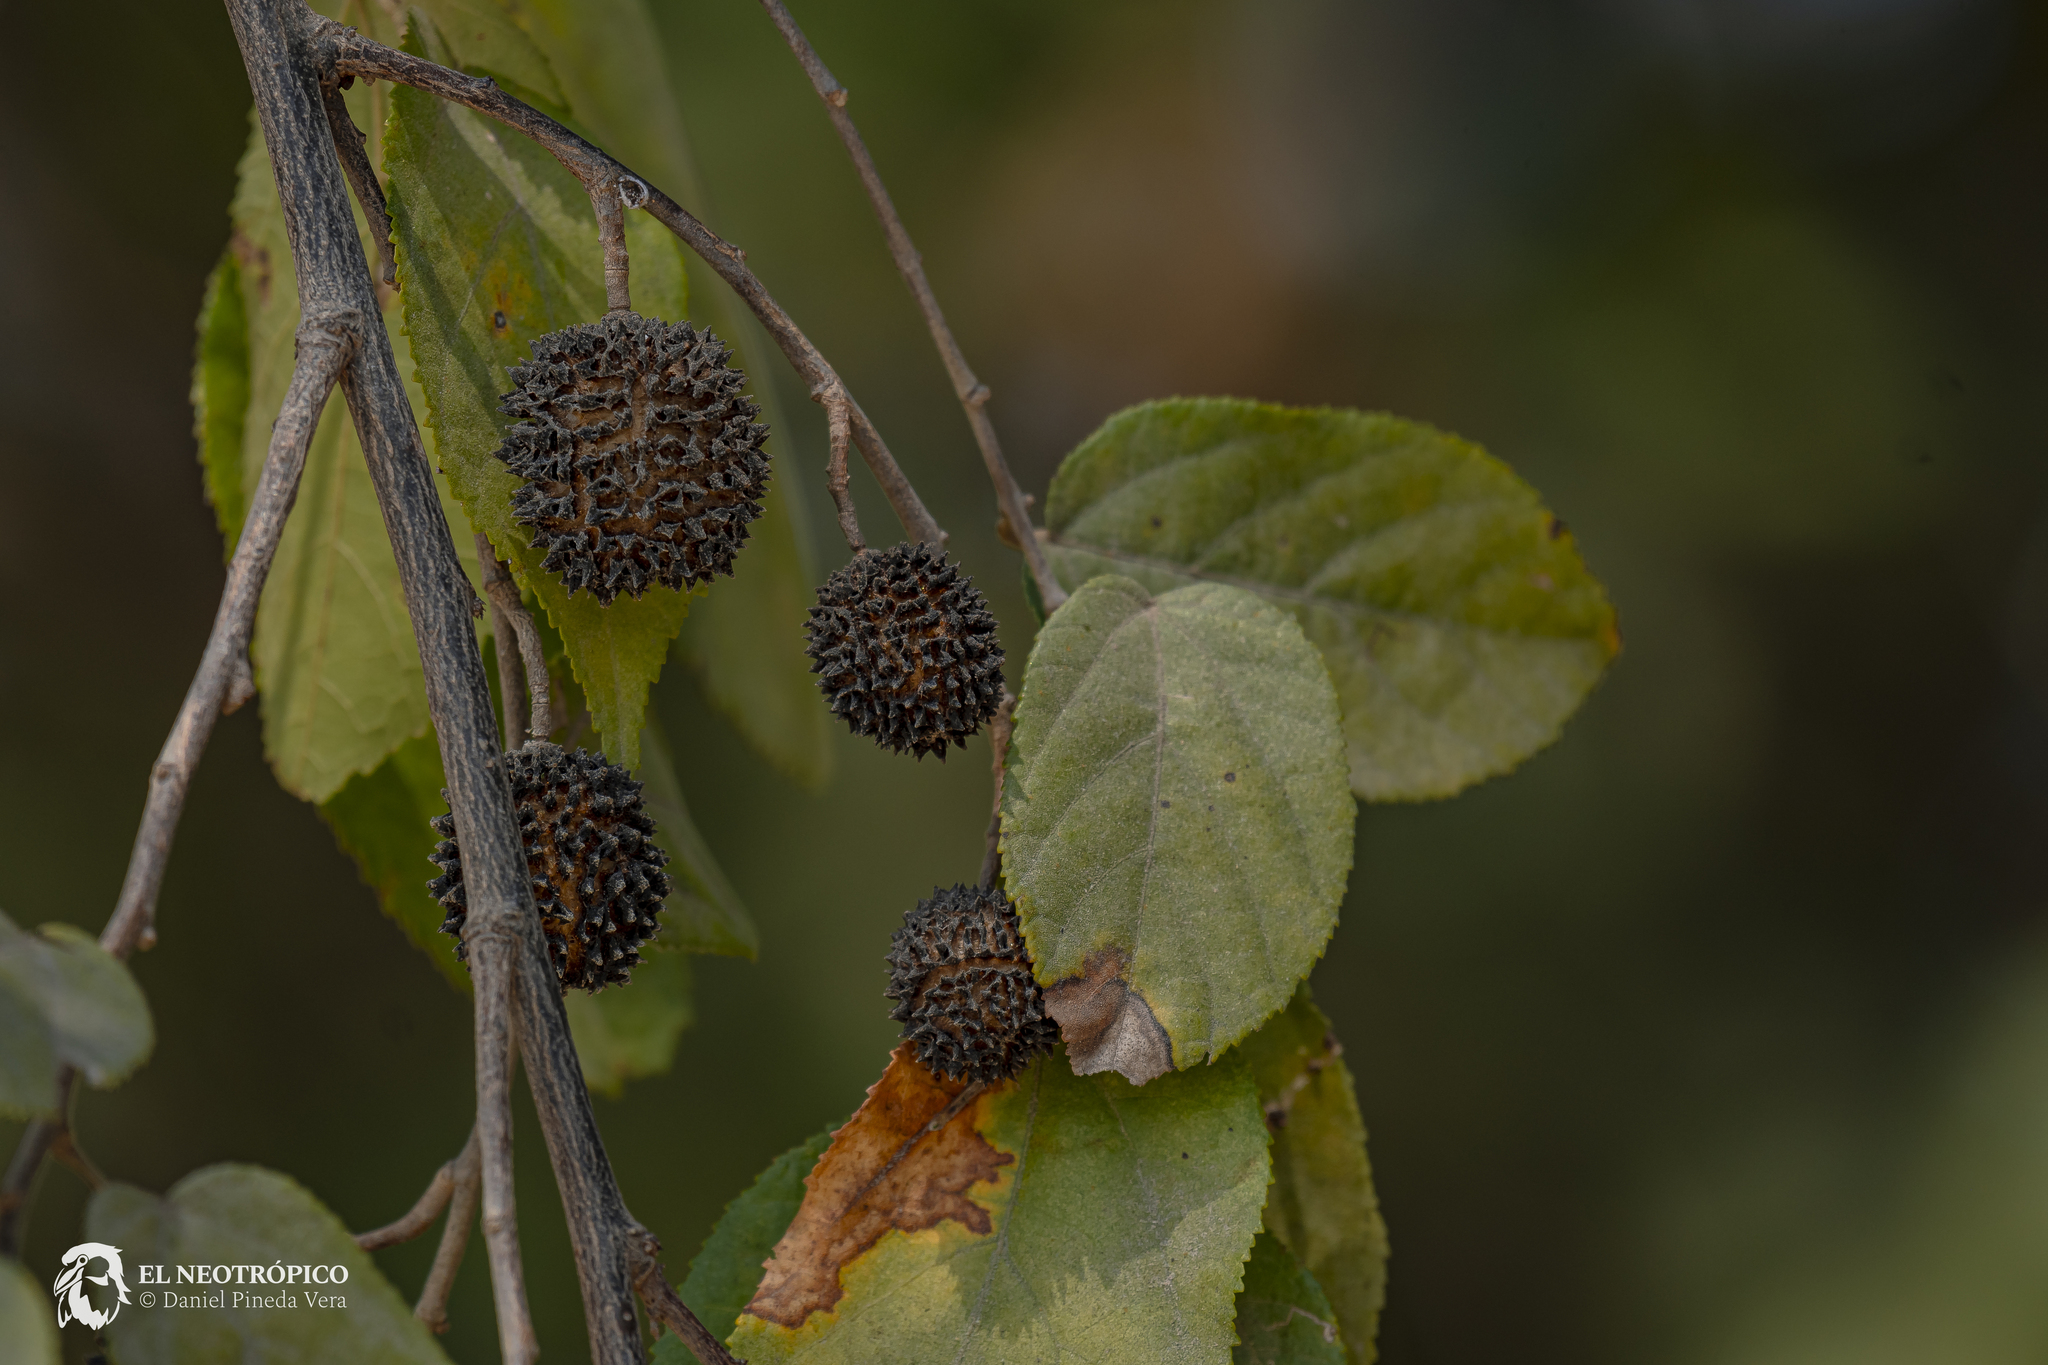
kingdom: Plantae
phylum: Tracheophyta
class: Magnoliopsida
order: Malvales
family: Malvaceae
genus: Guazuma
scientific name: Guazuma ulmifolia
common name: Bastard-cedar
